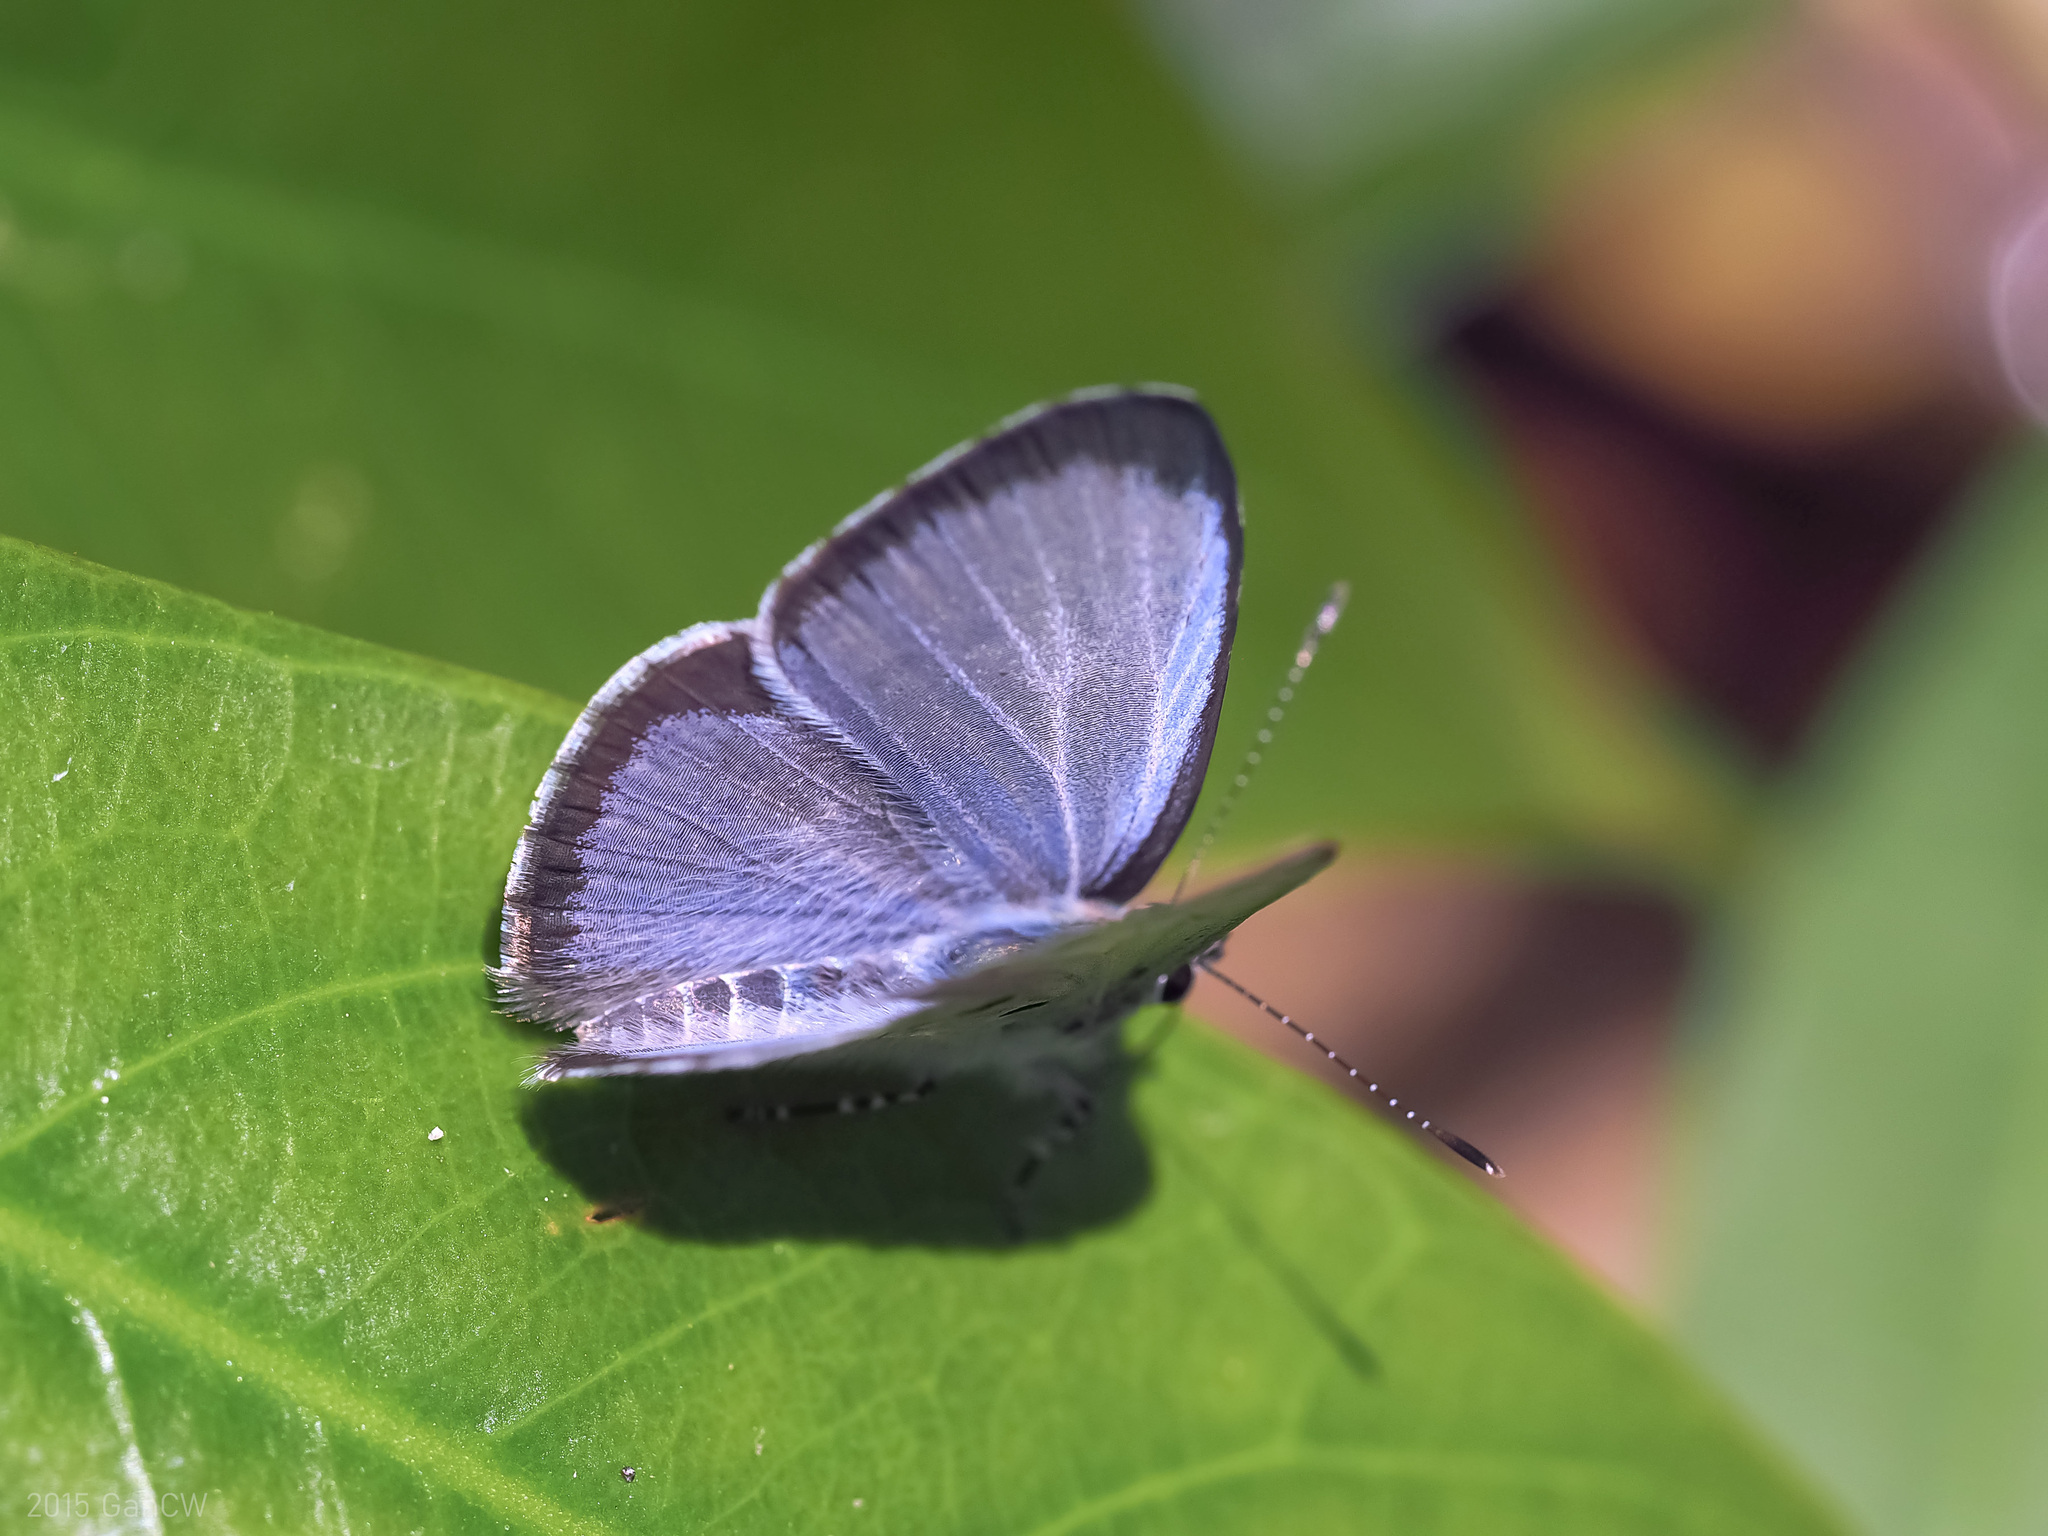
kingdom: Animalia
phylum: Arthropoda
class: Insecta
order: Lepidoptera
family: Lycaenidae
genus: Acytolepis
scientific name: Acytolepis puspa
